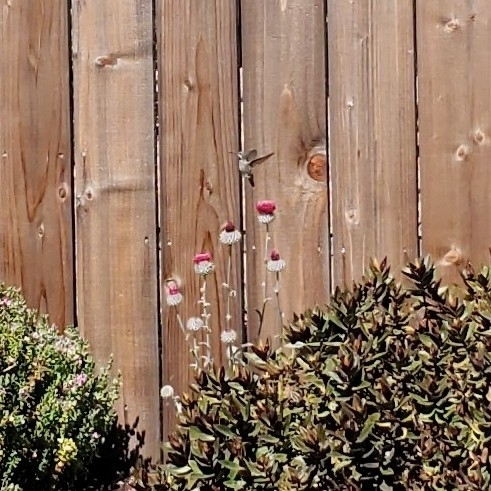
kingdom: Animalia
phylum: Chordata
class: Aves
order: Apodiformes
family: Trochilidae
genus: Calypte
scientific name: Calypte anna
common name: Anna's hummingbird
